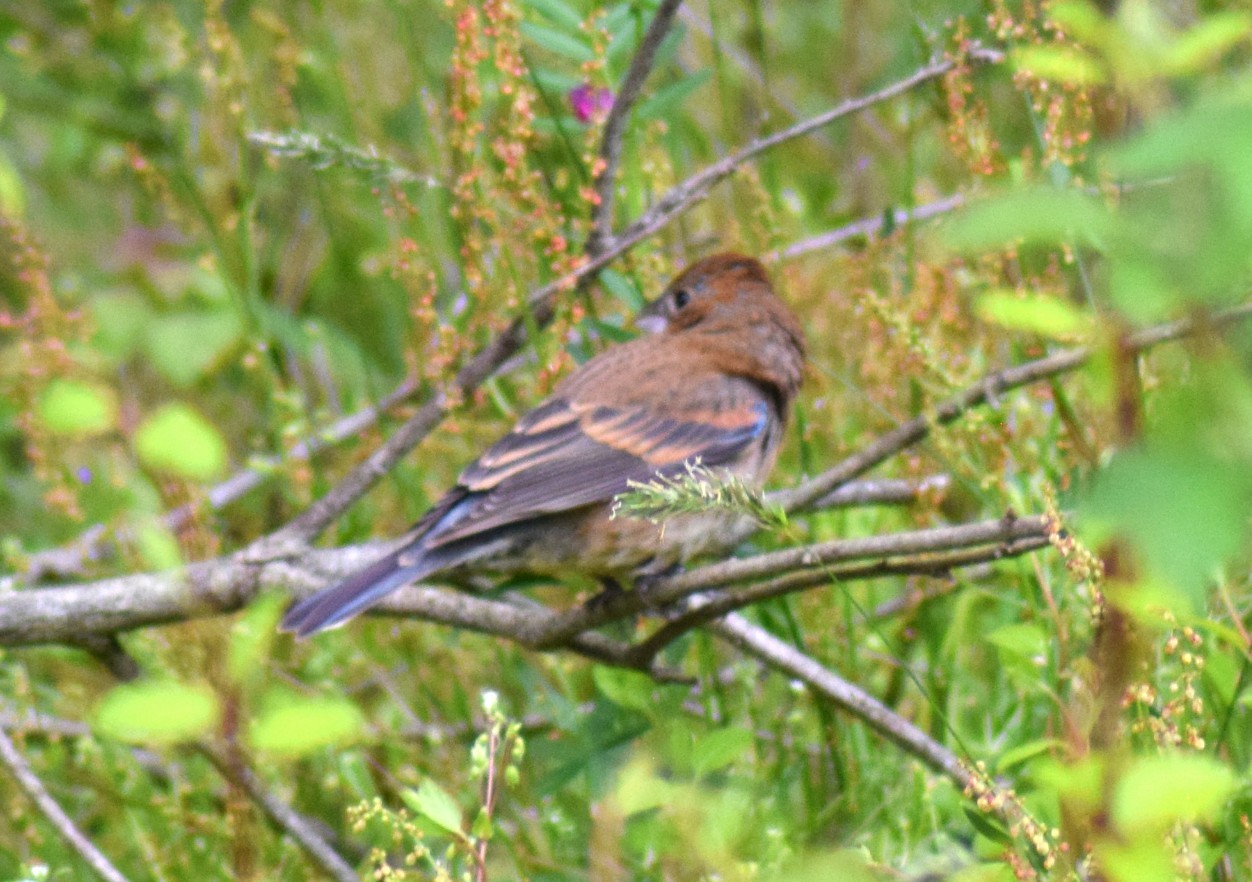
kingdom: Animalia
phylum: Chordata
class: Aves
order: Passeriformes
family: Cardinalidae
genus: Passerina
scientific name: Passerina caerulea
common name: Blue grosbeak
